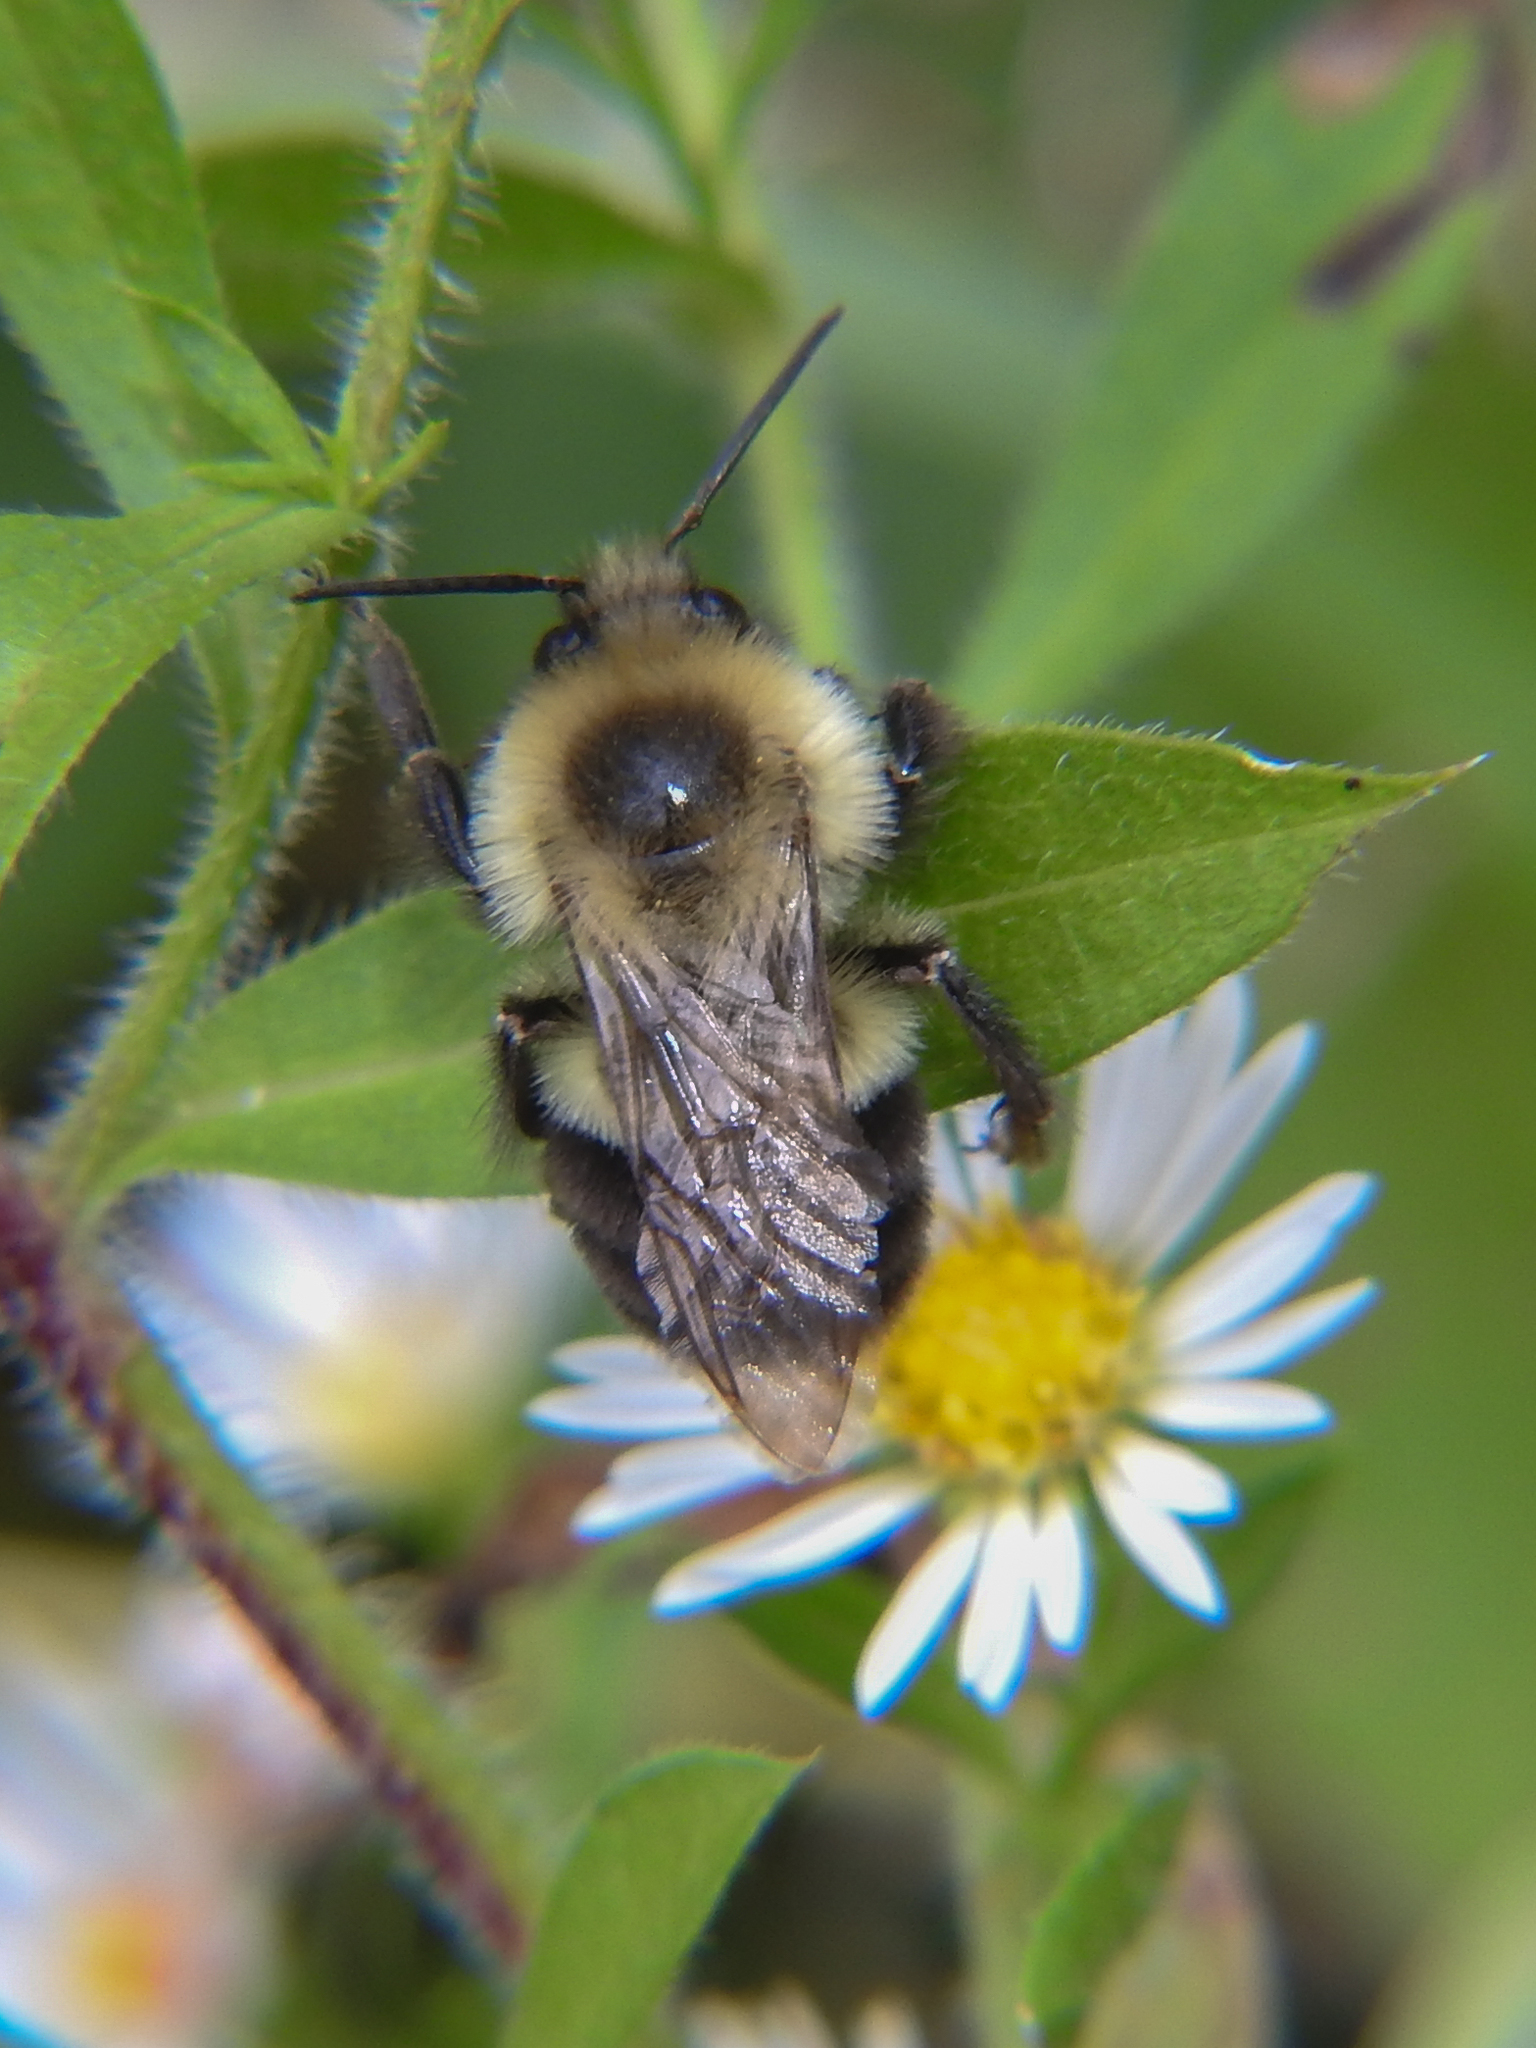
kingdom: Animalia
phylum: Arthropoda
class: Insecta
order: Hymenoptera
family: Apidae
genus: Bombus
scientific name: Bombus impatiens
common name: Common eastern bumble bee
